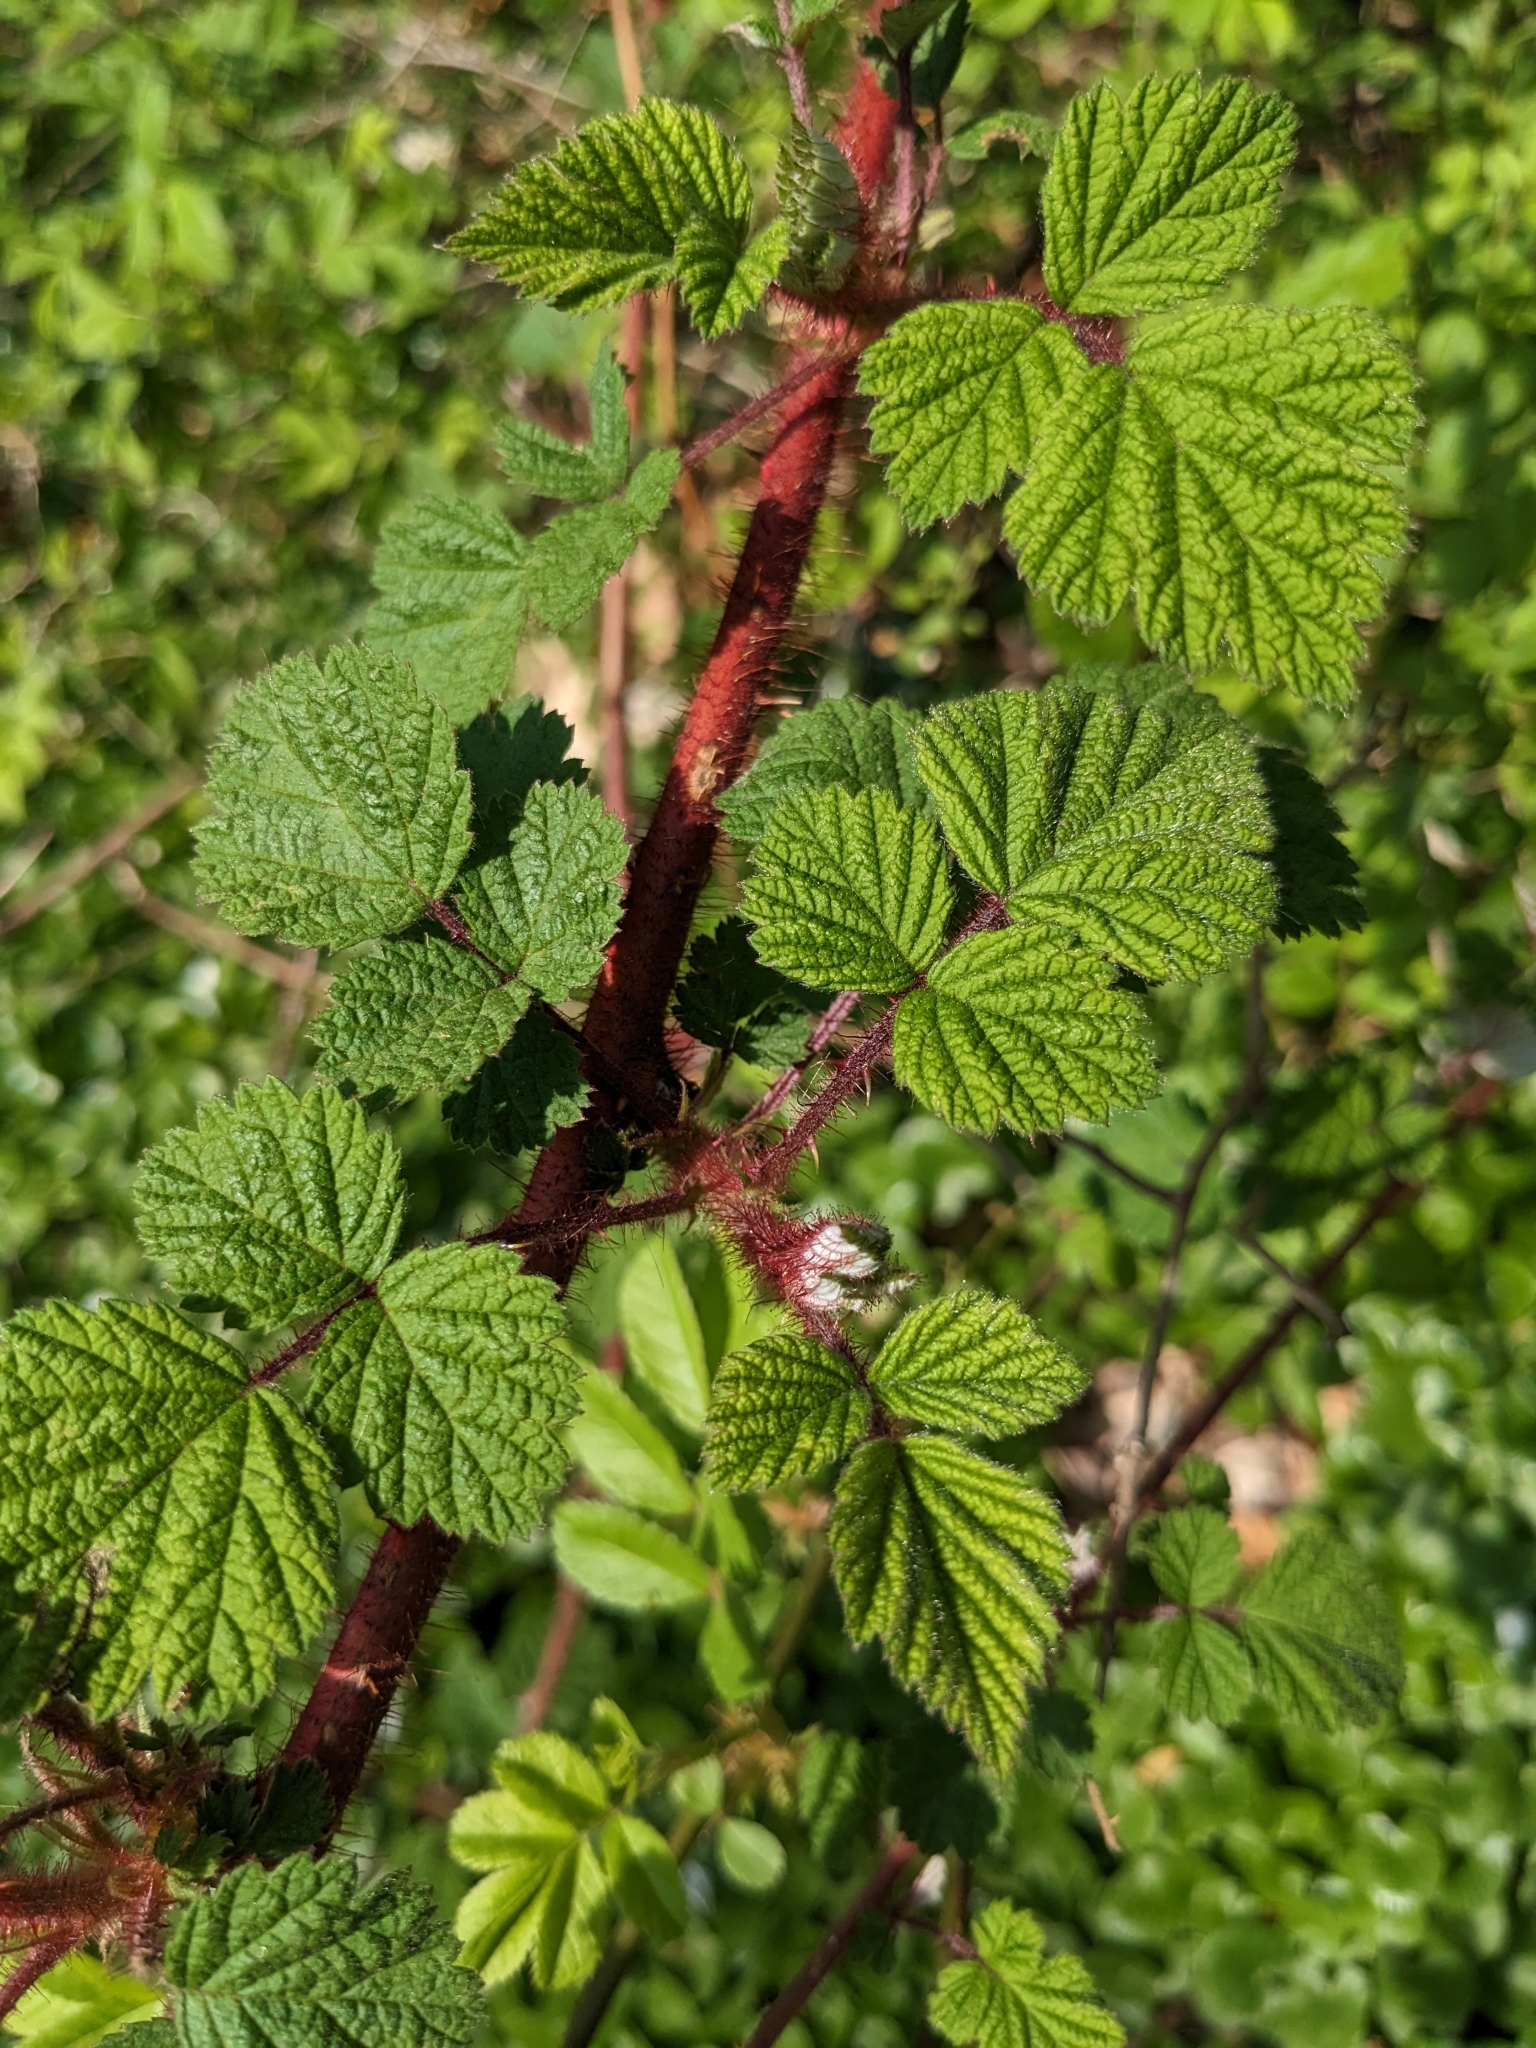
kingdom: Plantae
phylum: Tracheophyta
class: Magnoliopsida
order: Rosales
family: Rosaceae
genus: Rubus
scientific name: Rubus phoenicolasius
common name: Japanese wineberry
